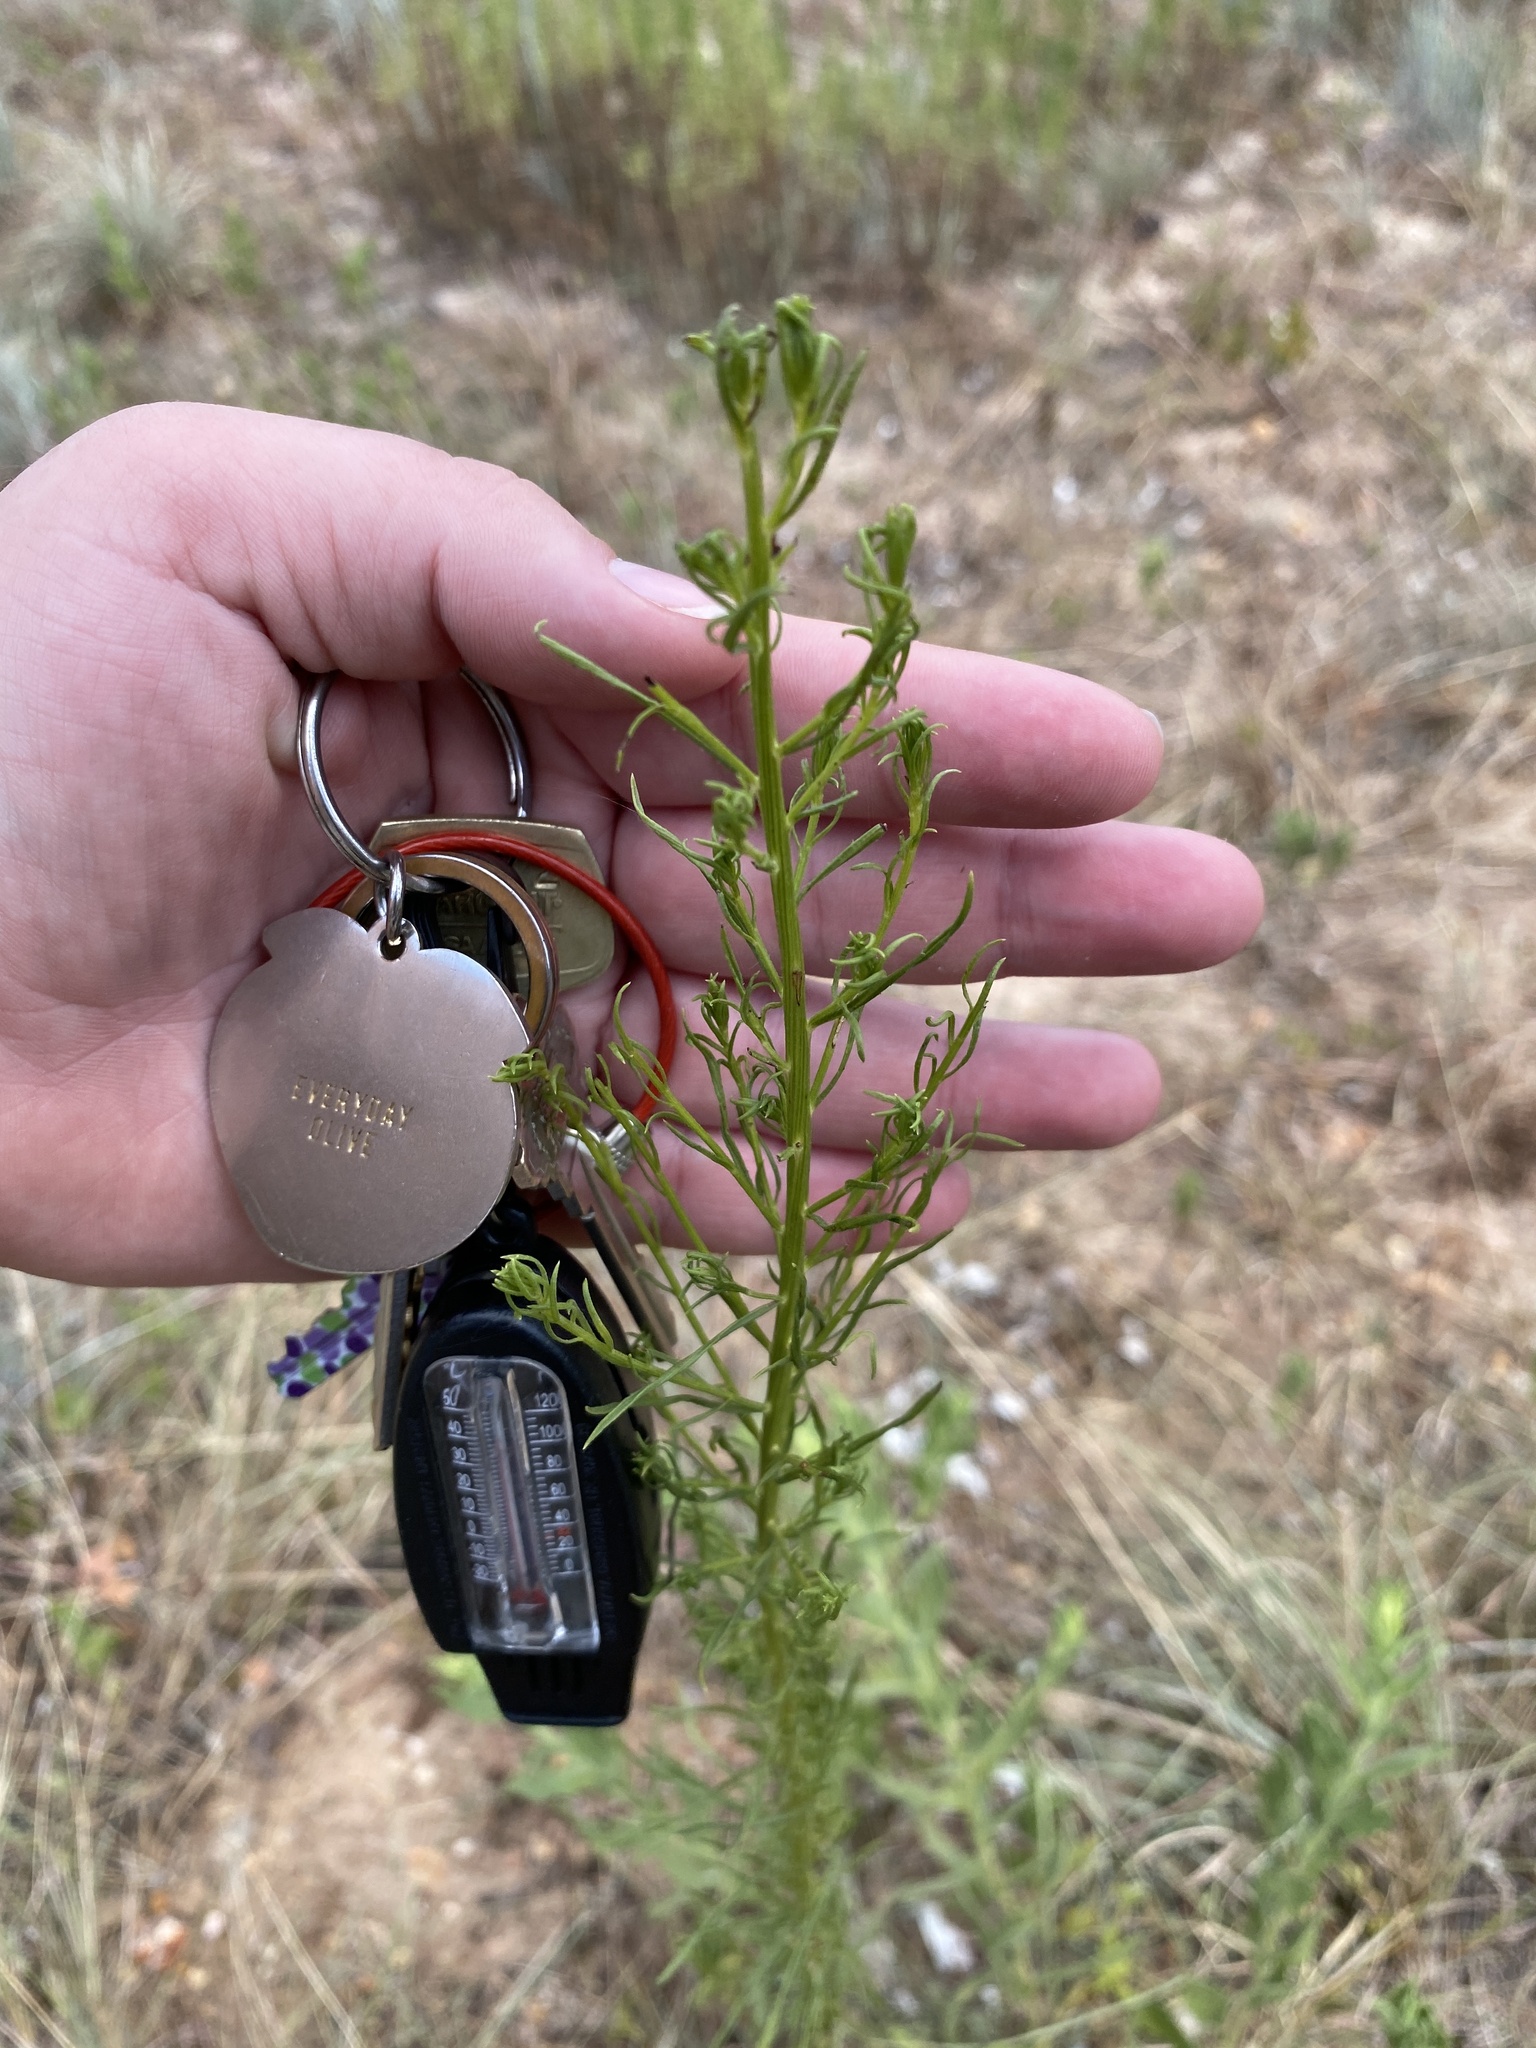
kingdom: Plantae
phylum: Tracheophyta
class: Magnoliopsida
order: Asterales
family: Asteraceae
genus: Erigeron
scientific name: Erigeron canadensis
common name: Canadian fleabane
